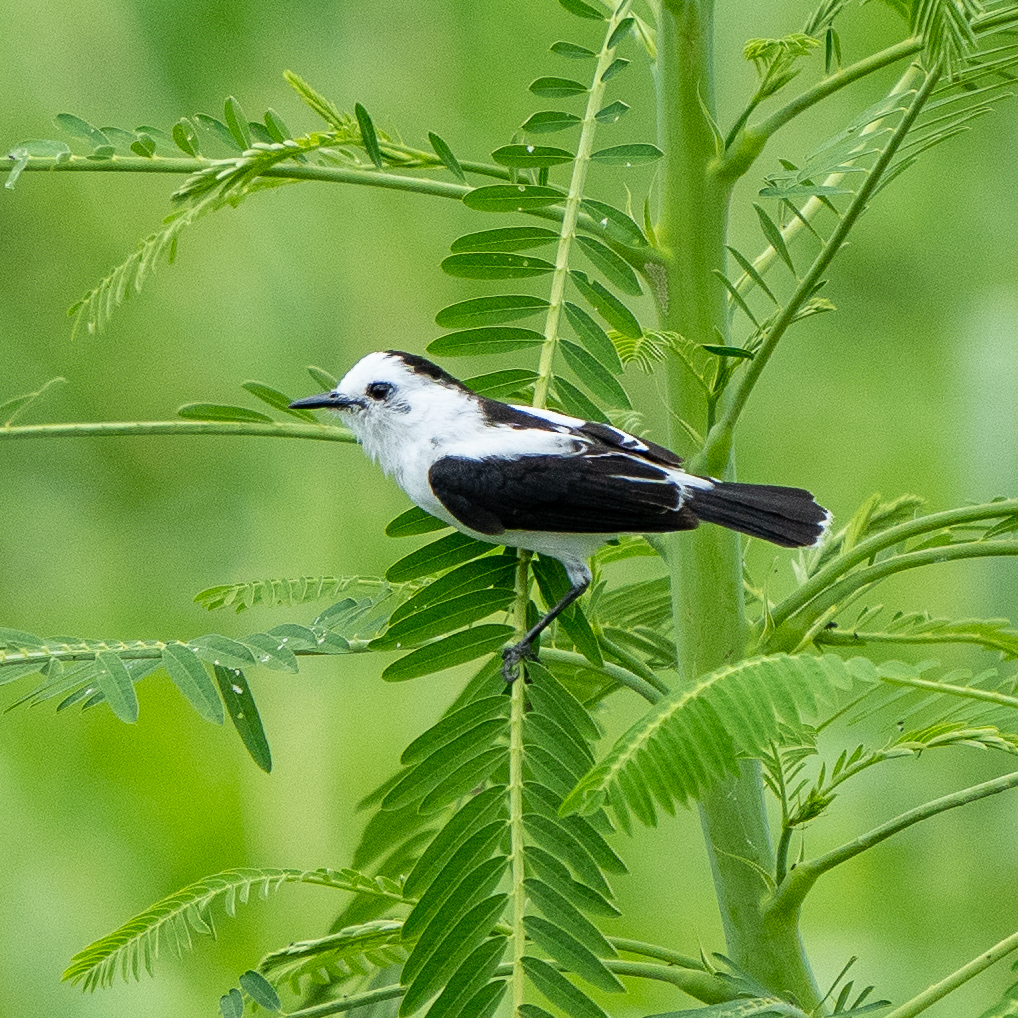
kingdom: Animalia
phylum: Chordata
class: Aves
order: Passeriformes
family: Tyrannidae
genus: Fluvicola
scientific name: Fluvicola pica
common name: Pied water-tyrant
